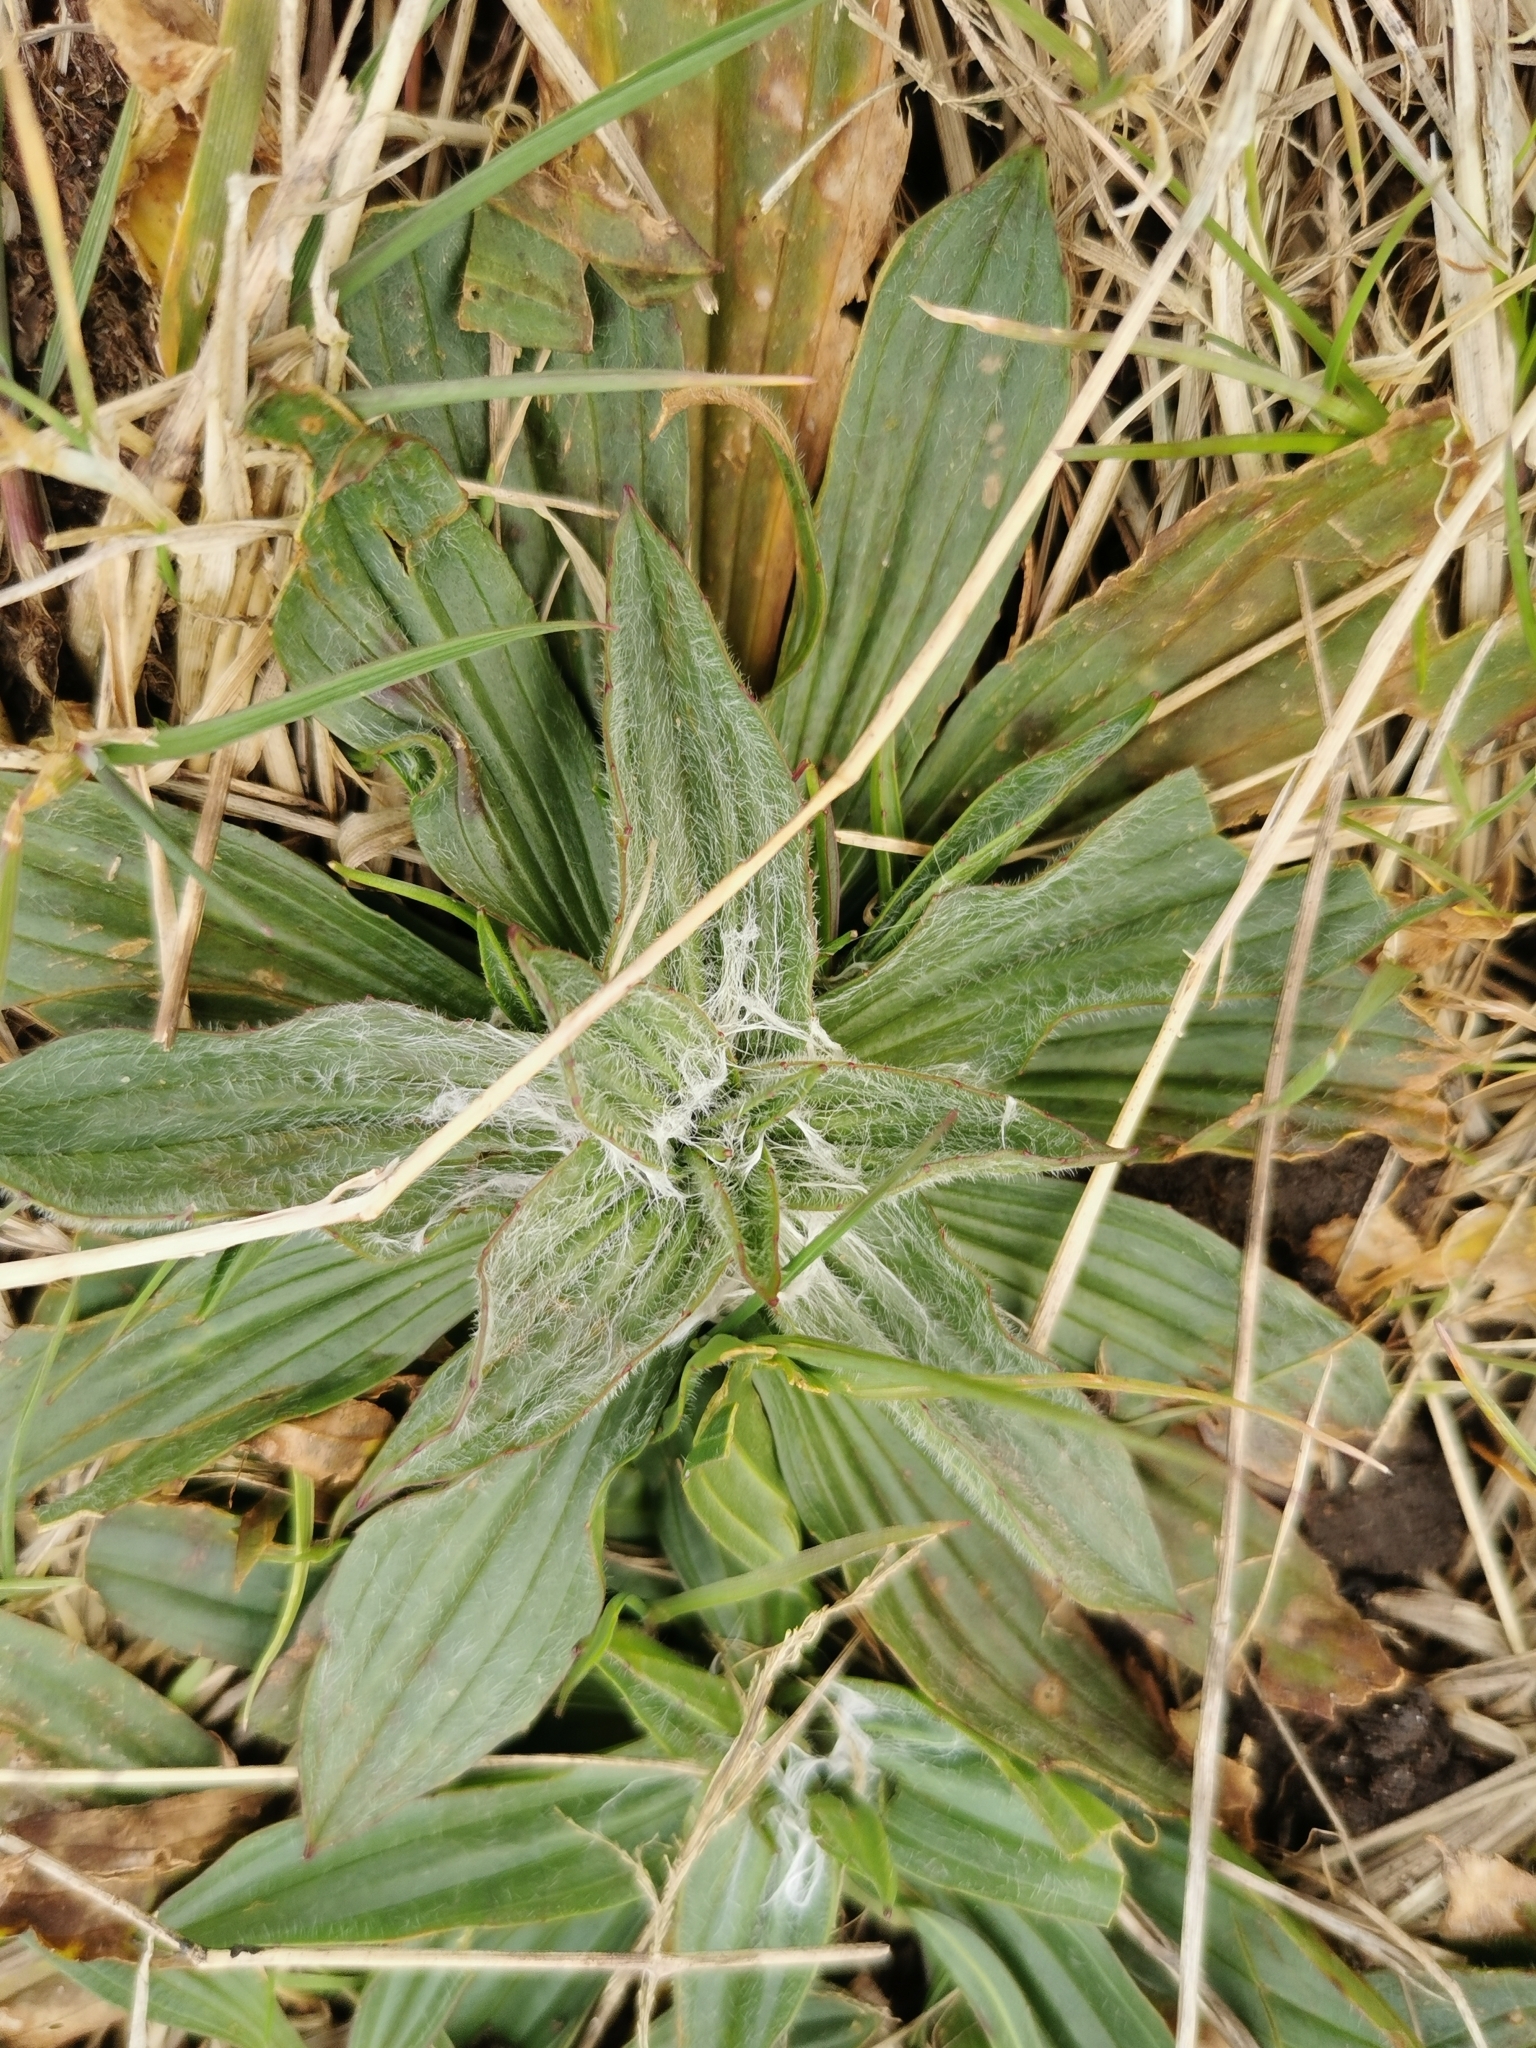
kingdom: Plantae
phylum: Tracheophyta
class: Magnoliopsida
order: Lamiales
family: Plantaginaceae
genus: Plantago
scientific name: Plantago lanceolata
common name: Ribwort plantain
